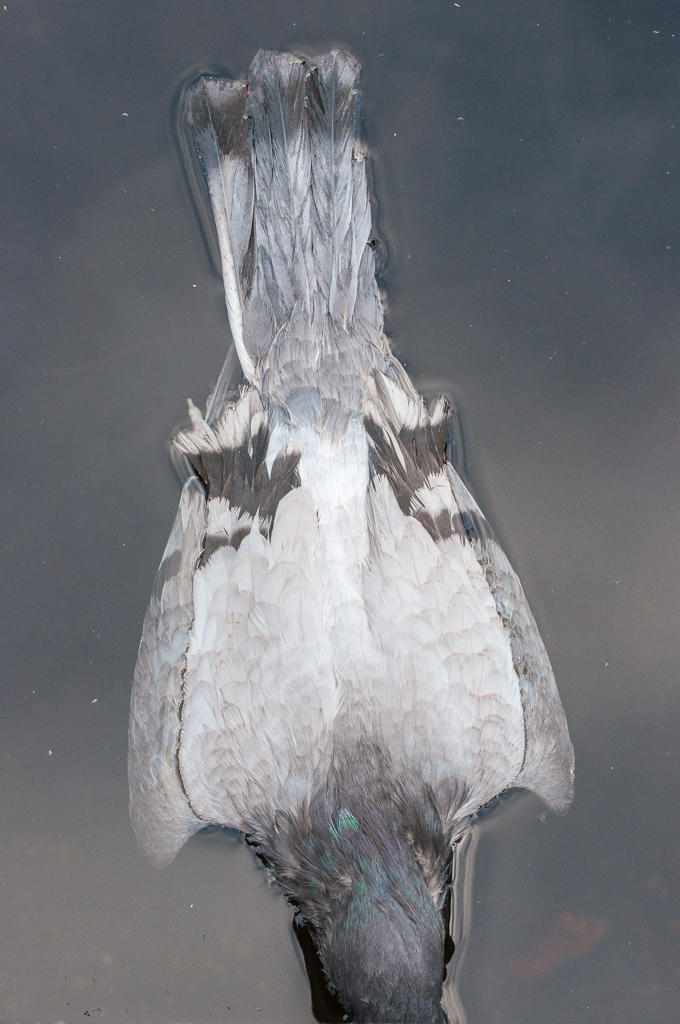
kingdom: Animalia
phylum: Chordata
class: Aves
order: Columbiformes
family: Columbidae
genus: Columba
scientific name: Columba livia
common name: Rock pigeon
